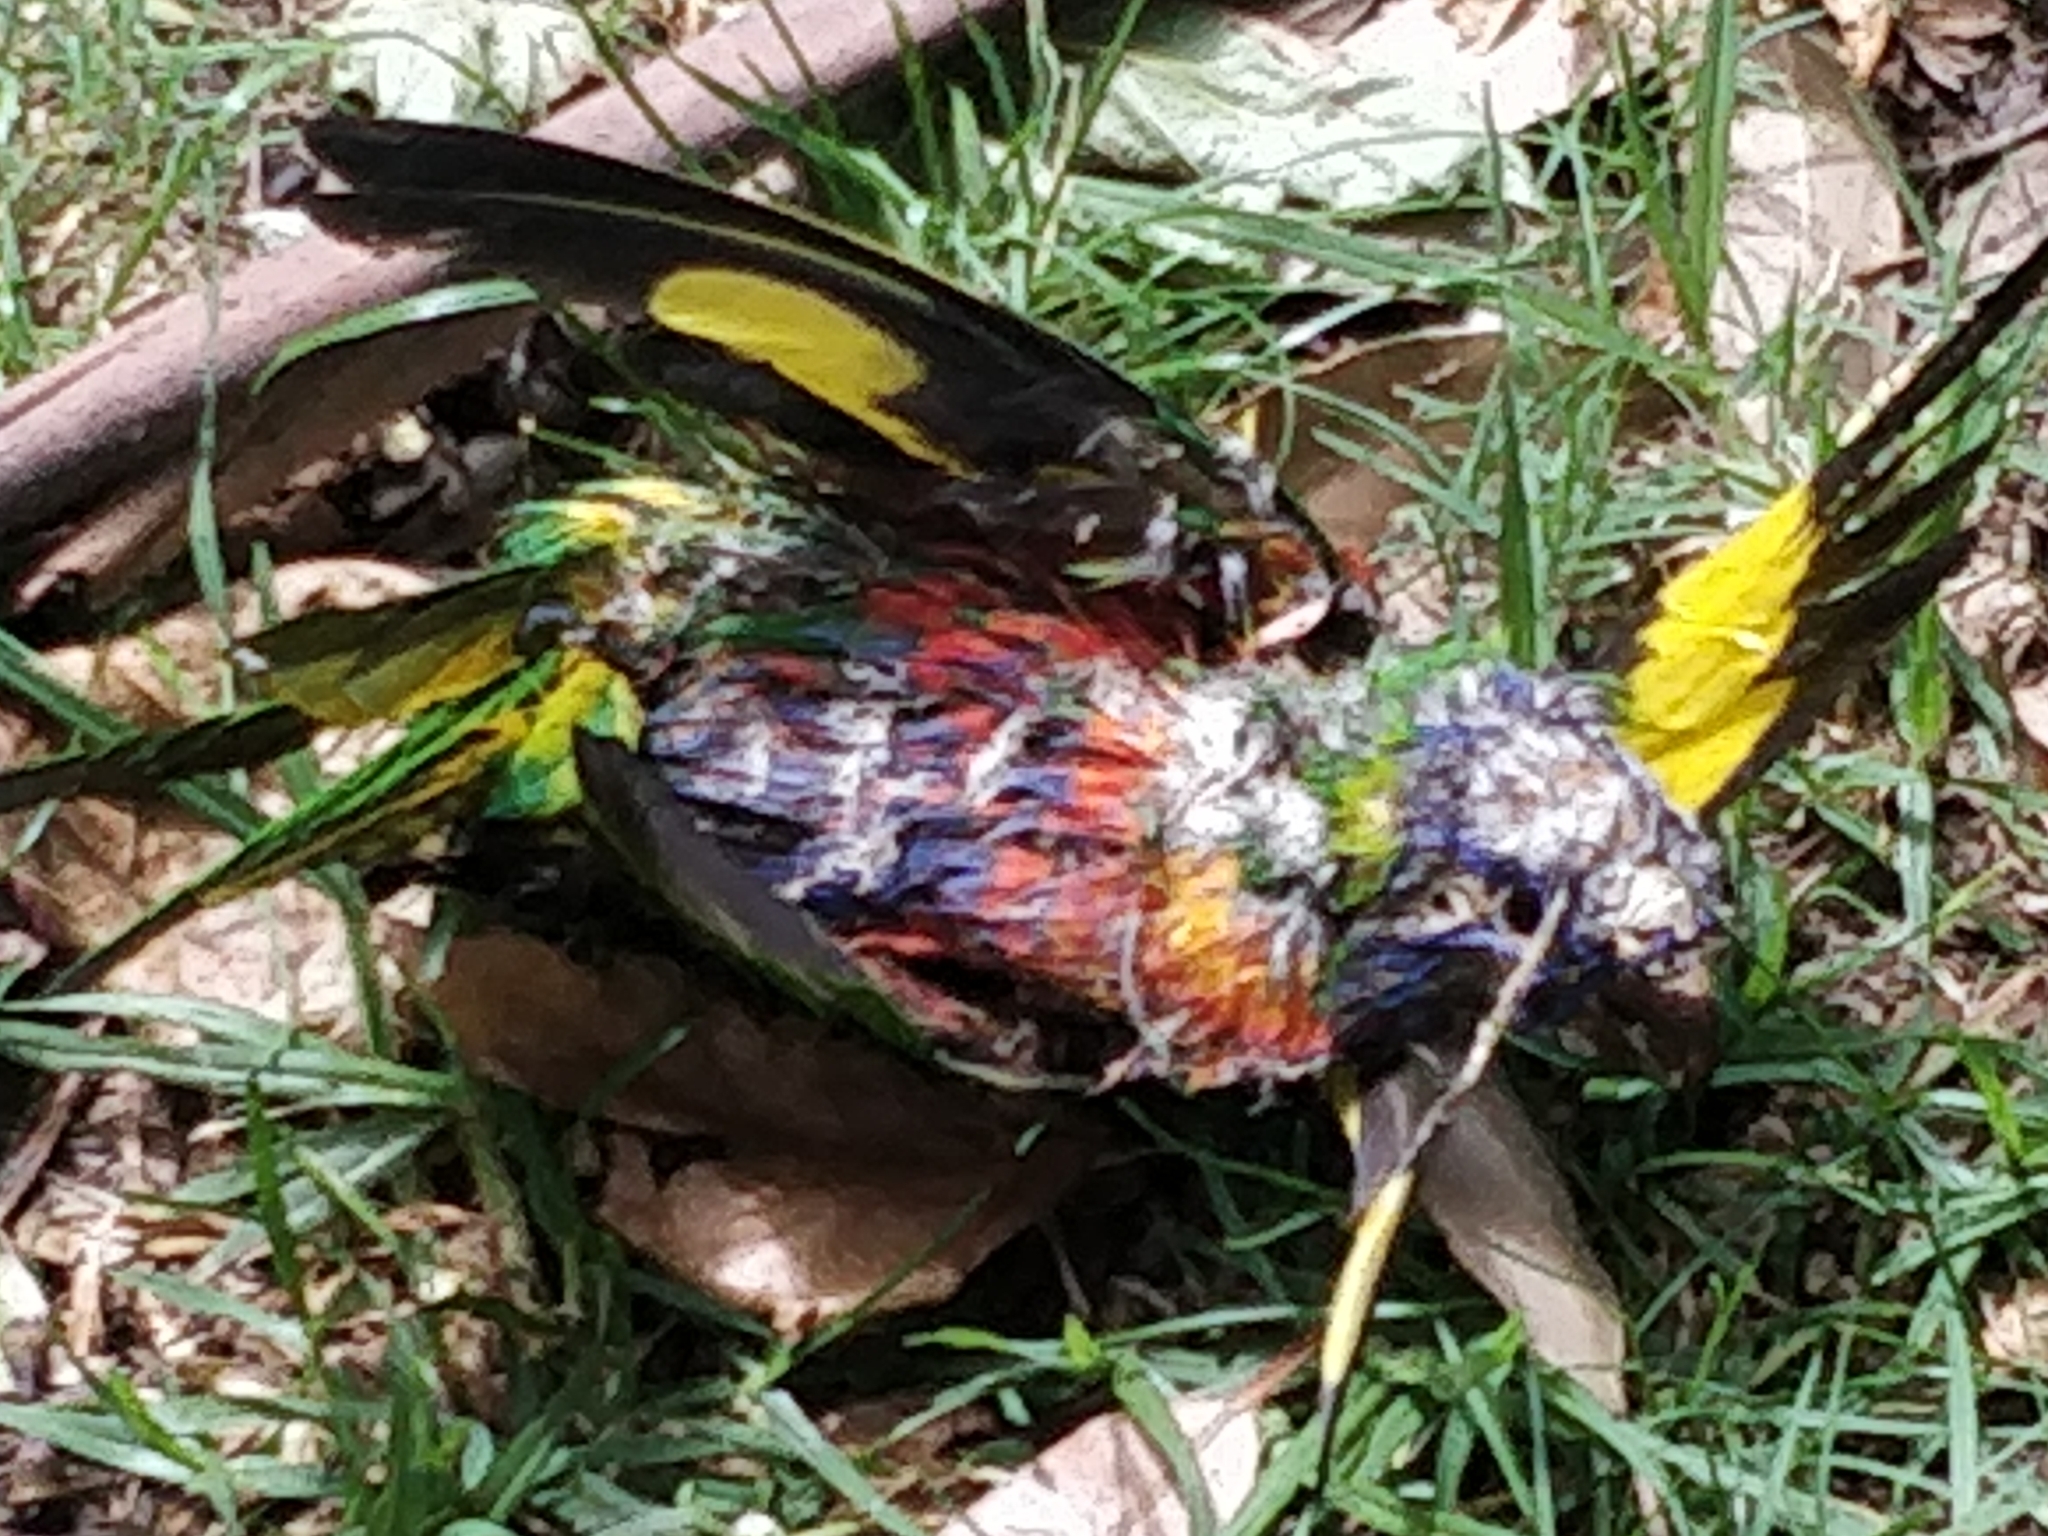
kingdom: Animalia
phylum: Chordata
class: Aves
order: Psittaciformes
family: Psittacidae
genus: Trichoglossus
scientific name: Trichoglossus haematodus
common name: Coconut lorikeet
